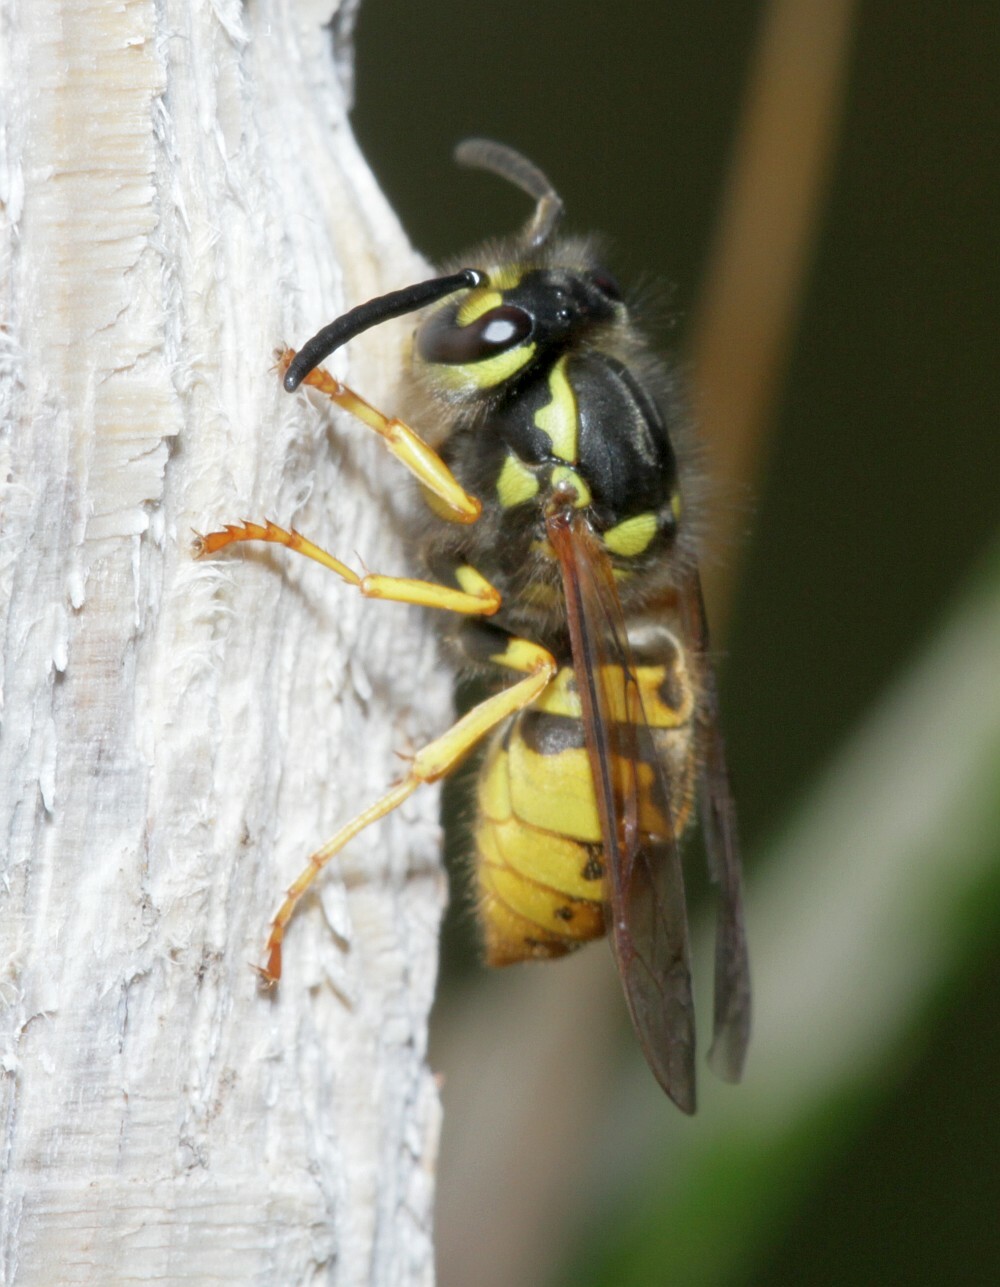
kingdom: Animalia
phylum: Arthropoda
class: Insecta
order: Hymenoptera
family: Vespidae
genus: Vespula
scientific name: Vespula germanica
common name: German wasp
